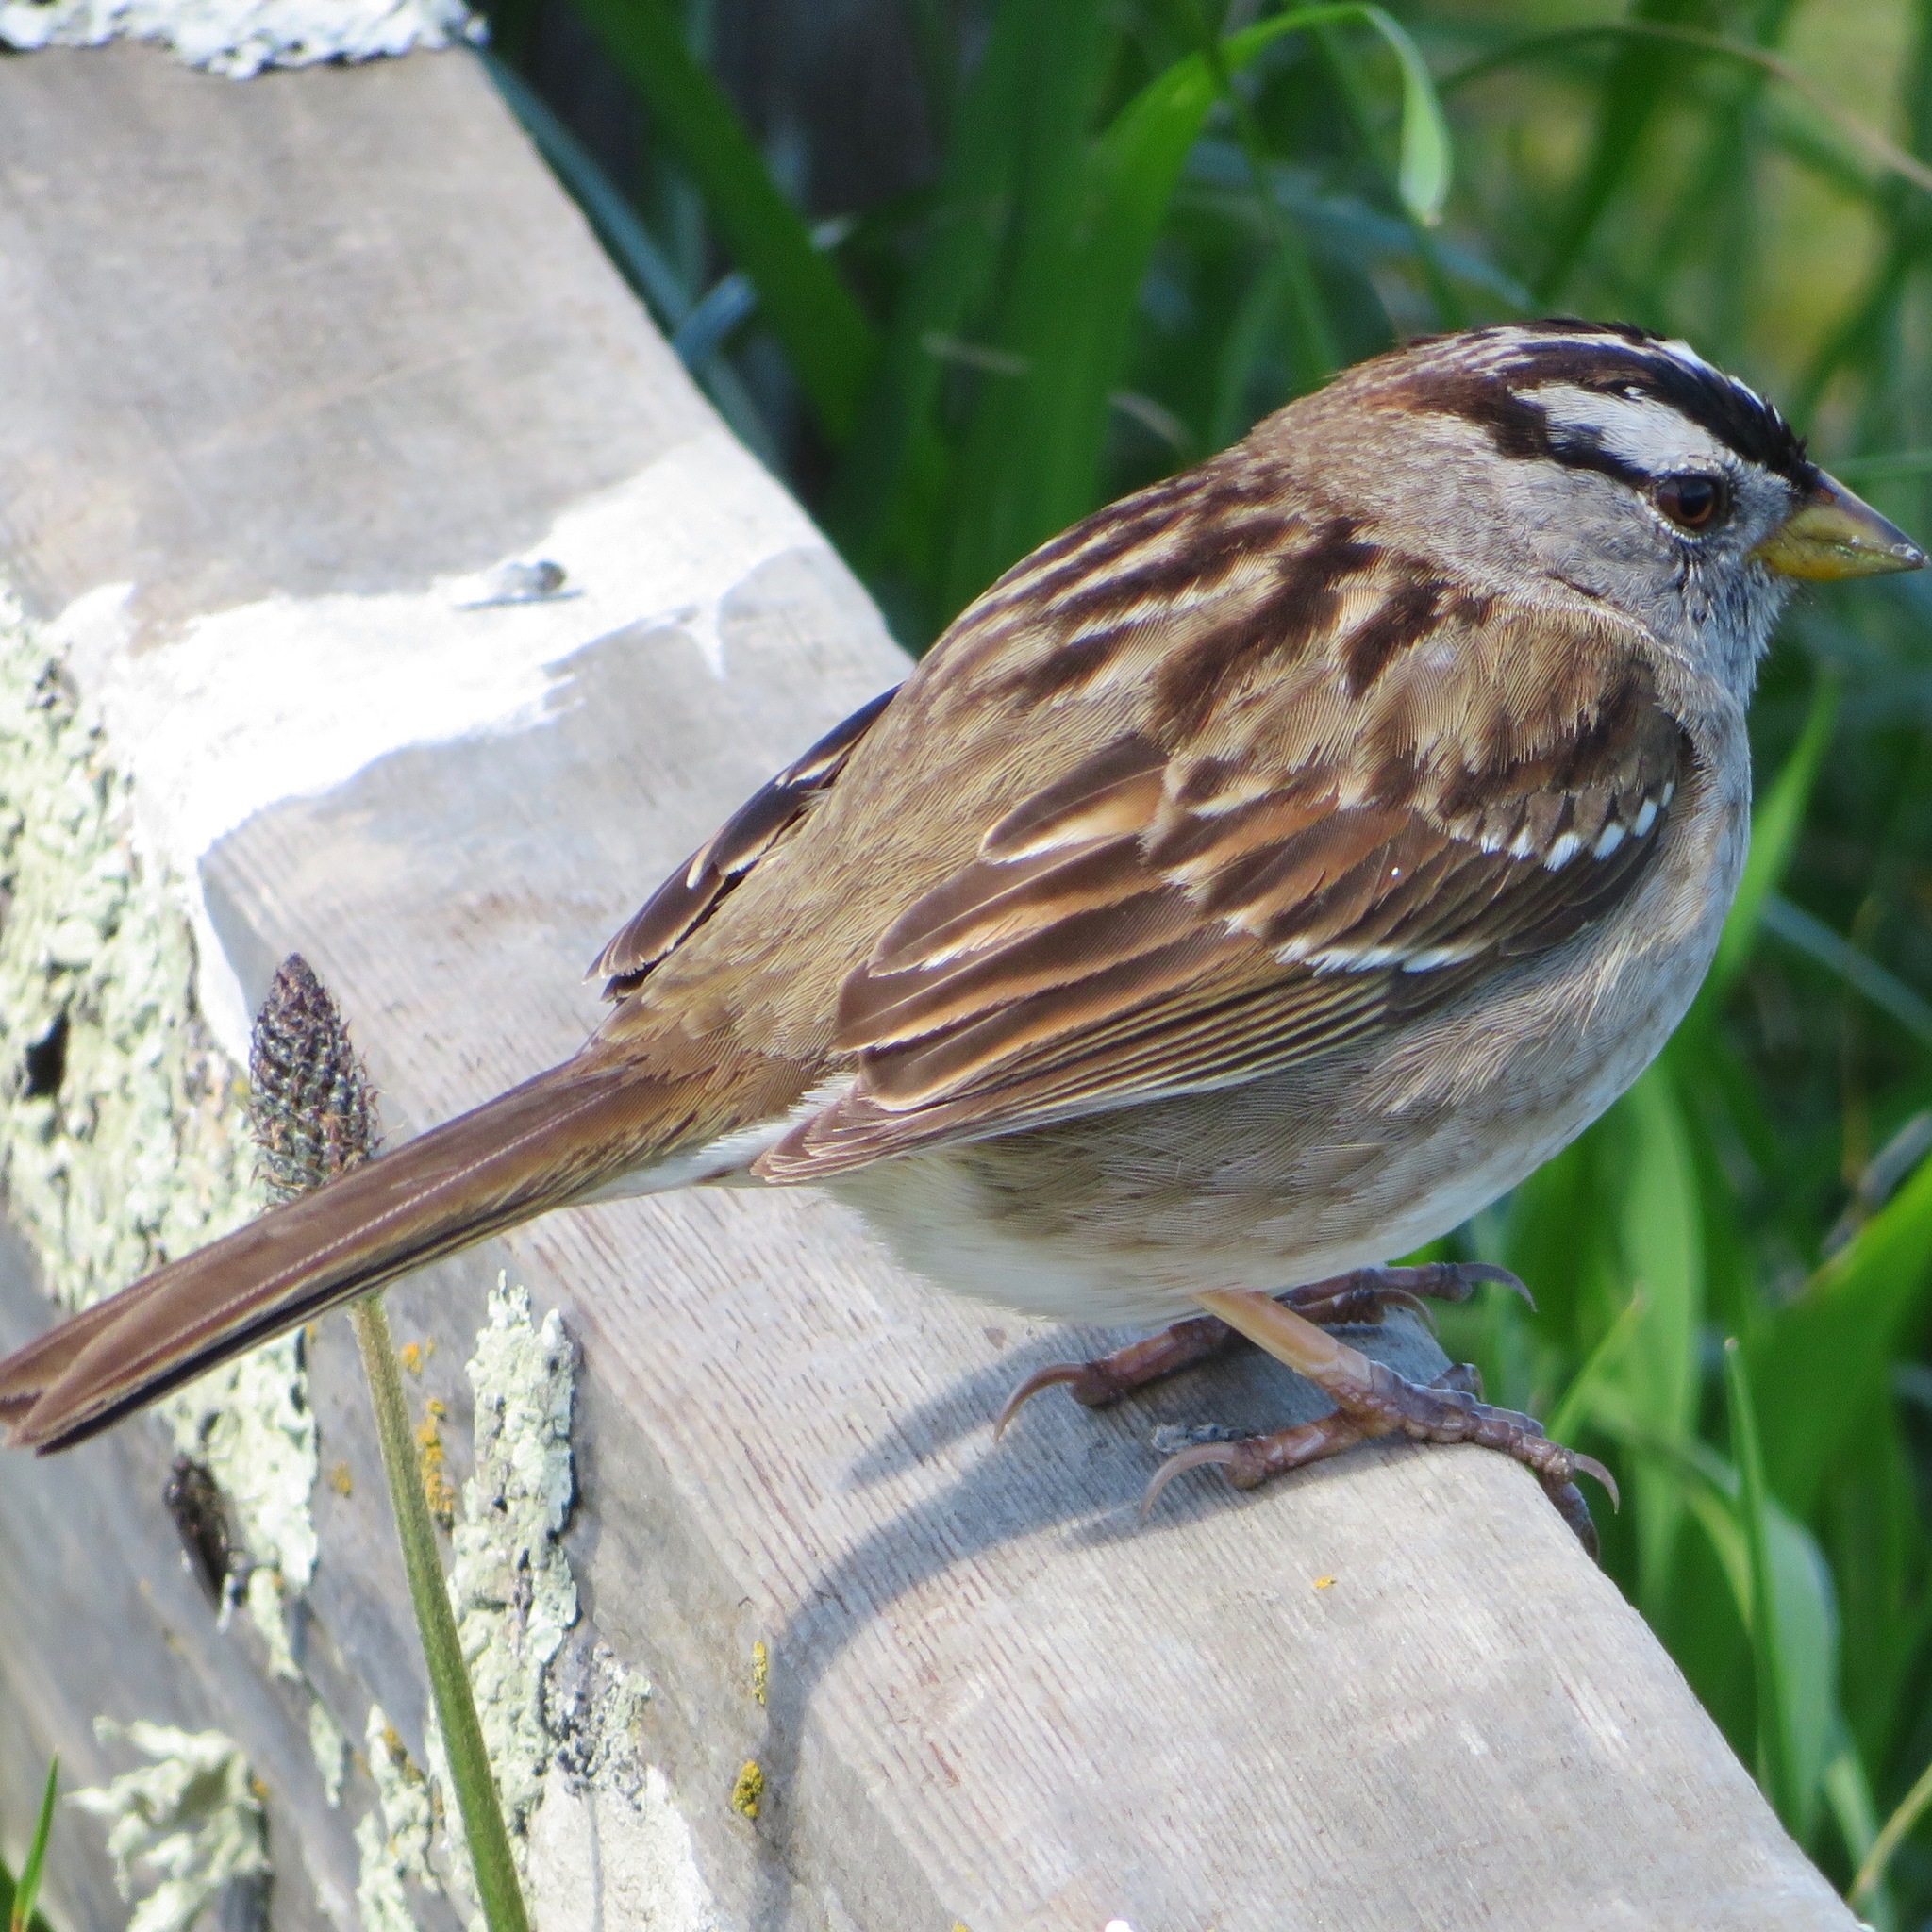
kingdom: Animalia
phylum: Chordata
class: Aves
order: Passeriformes
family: Passerellidae
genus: Zonotrichia
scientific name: Zonotrichia leucophrys
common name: White-crowned sparrow
